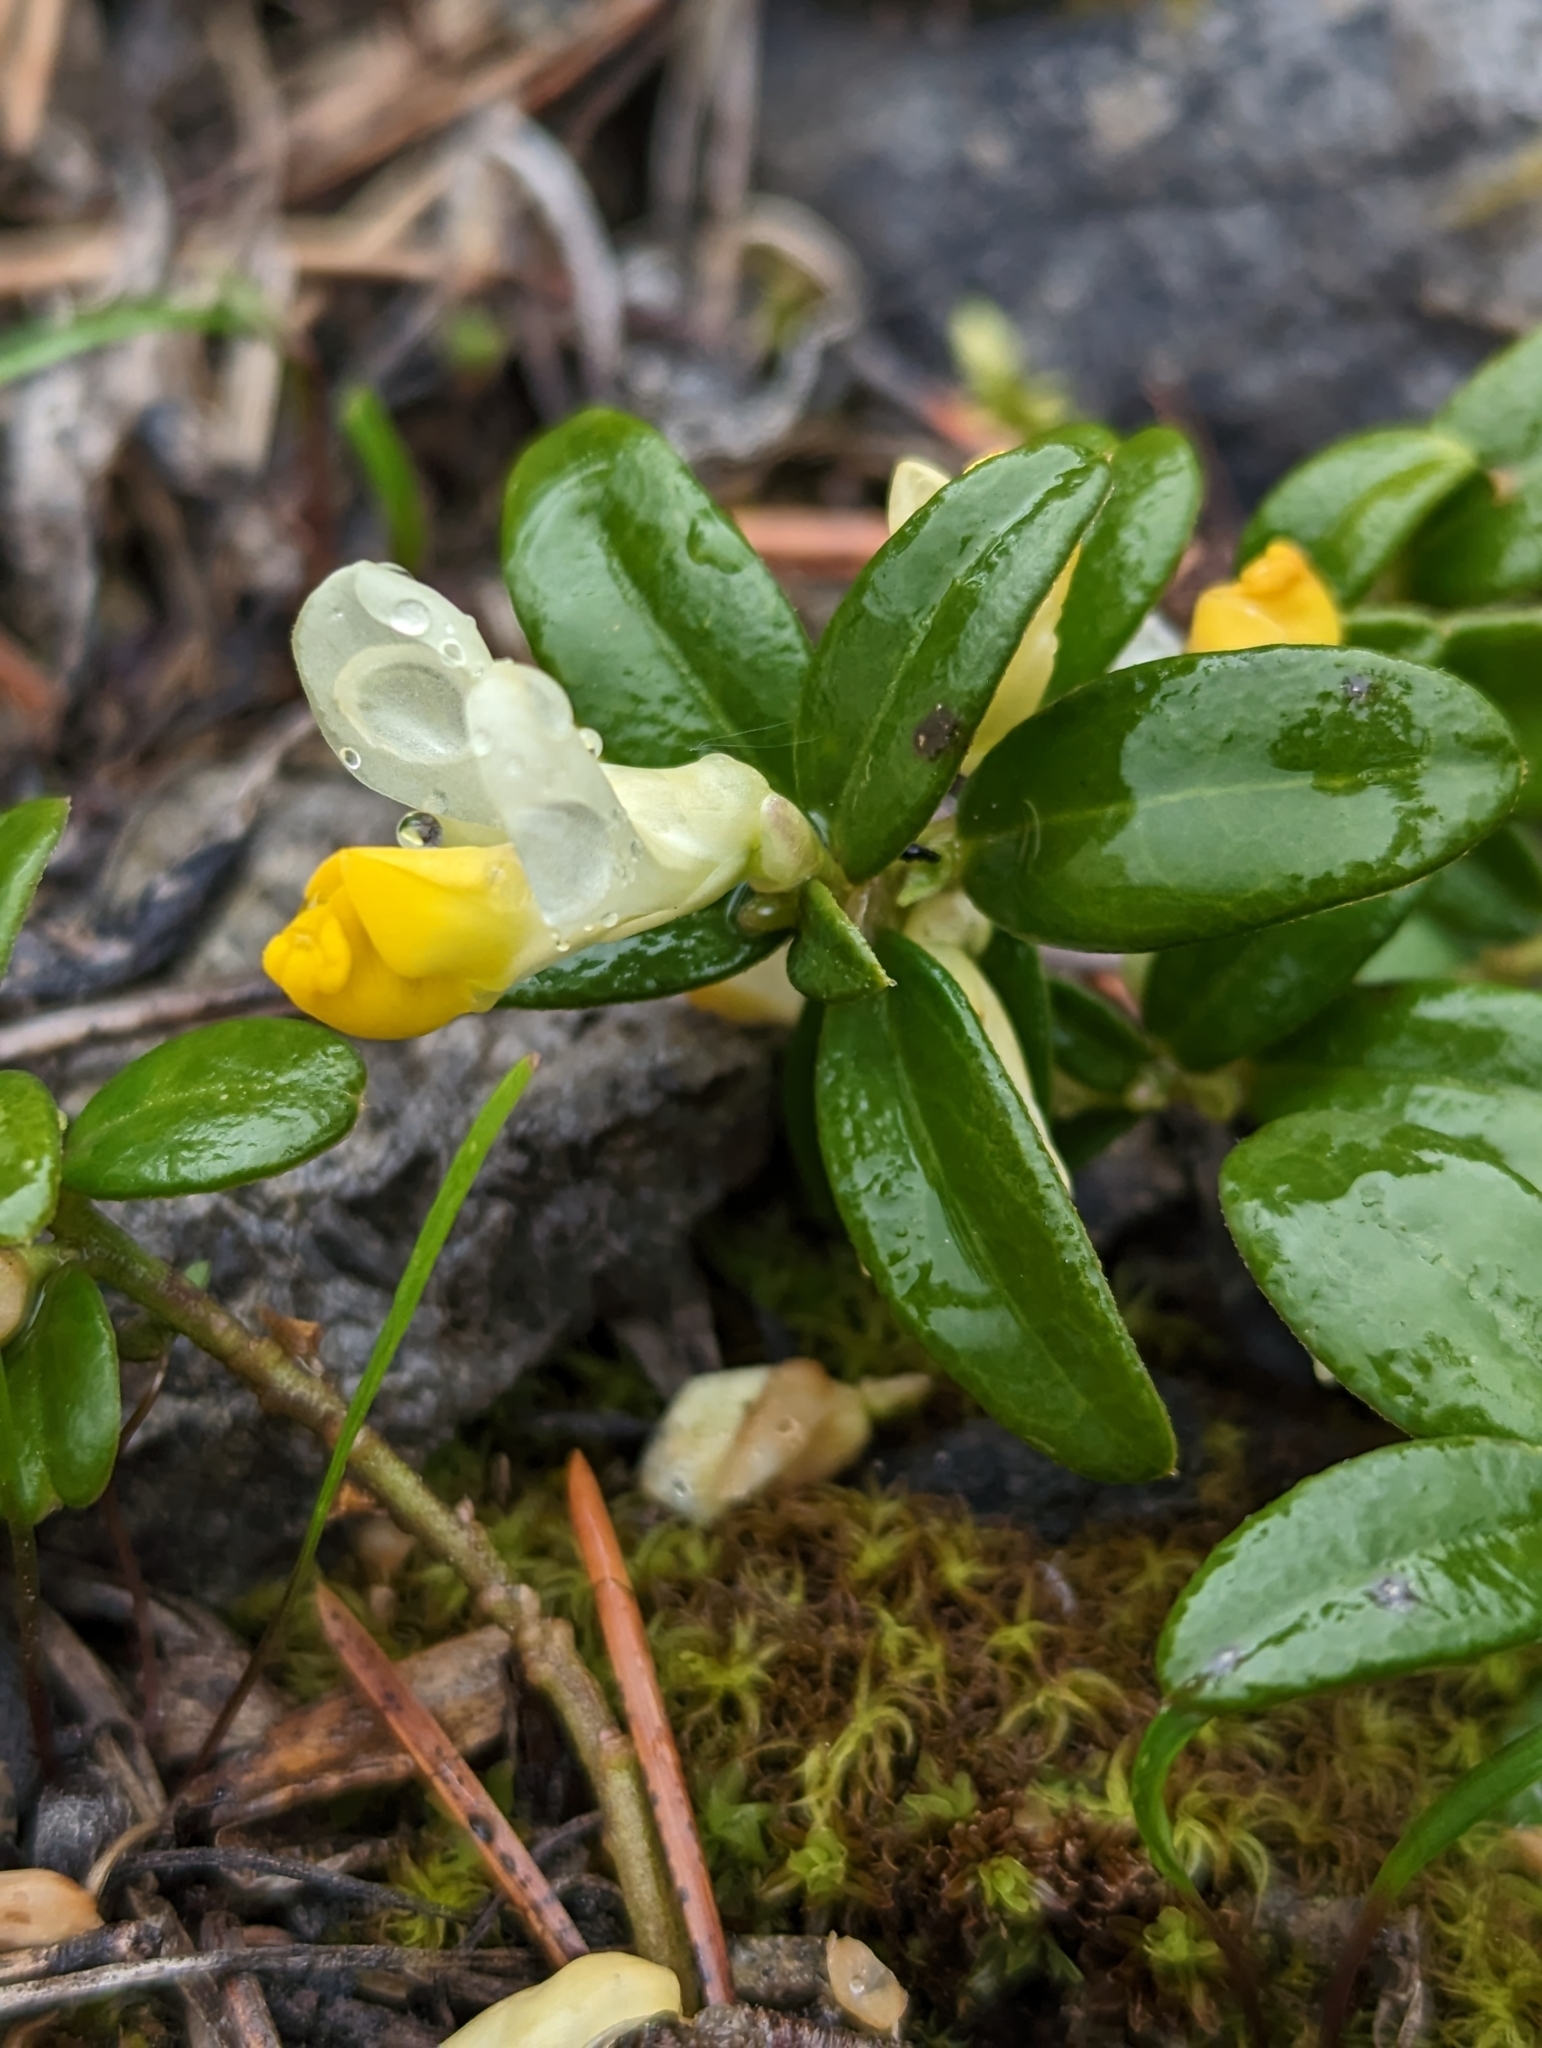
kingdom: Plantae
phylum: Tracheophyta
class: Magnoliopsida
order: Fabales
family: Polygalaceae
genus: Polygaloides
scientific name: Polygaloides chamaebuxus
